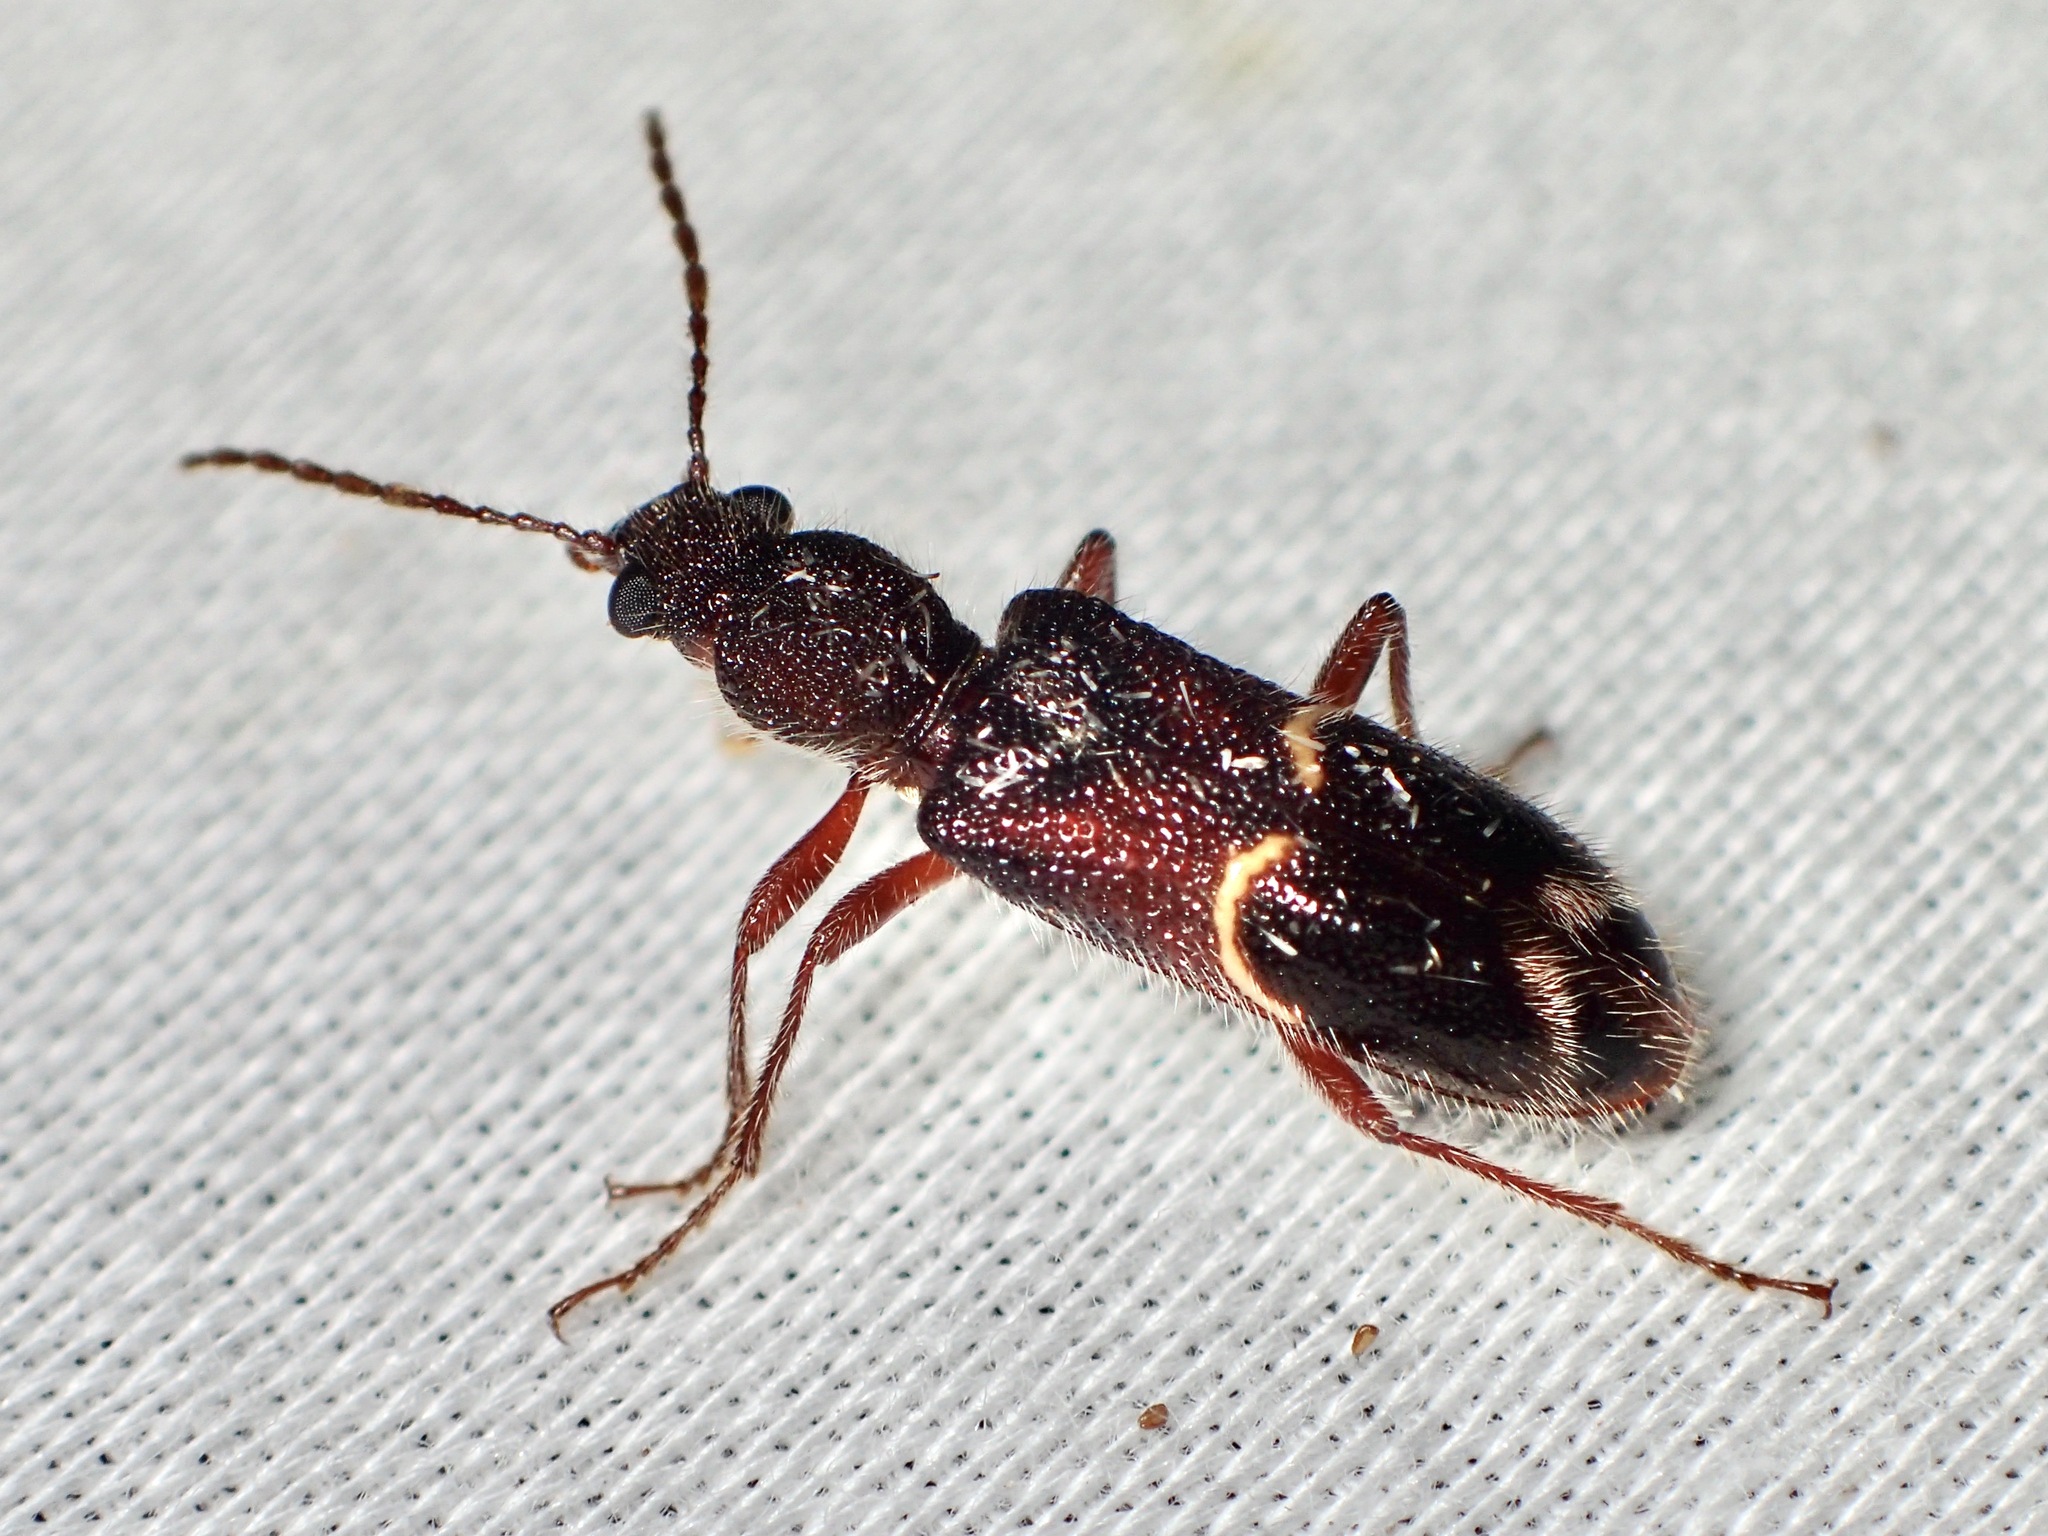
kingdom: Animalia
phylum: Arthropoda
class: Insecta
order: Coleoptera
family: Pythidae
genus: Anaplopus
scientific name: Anaplopus
